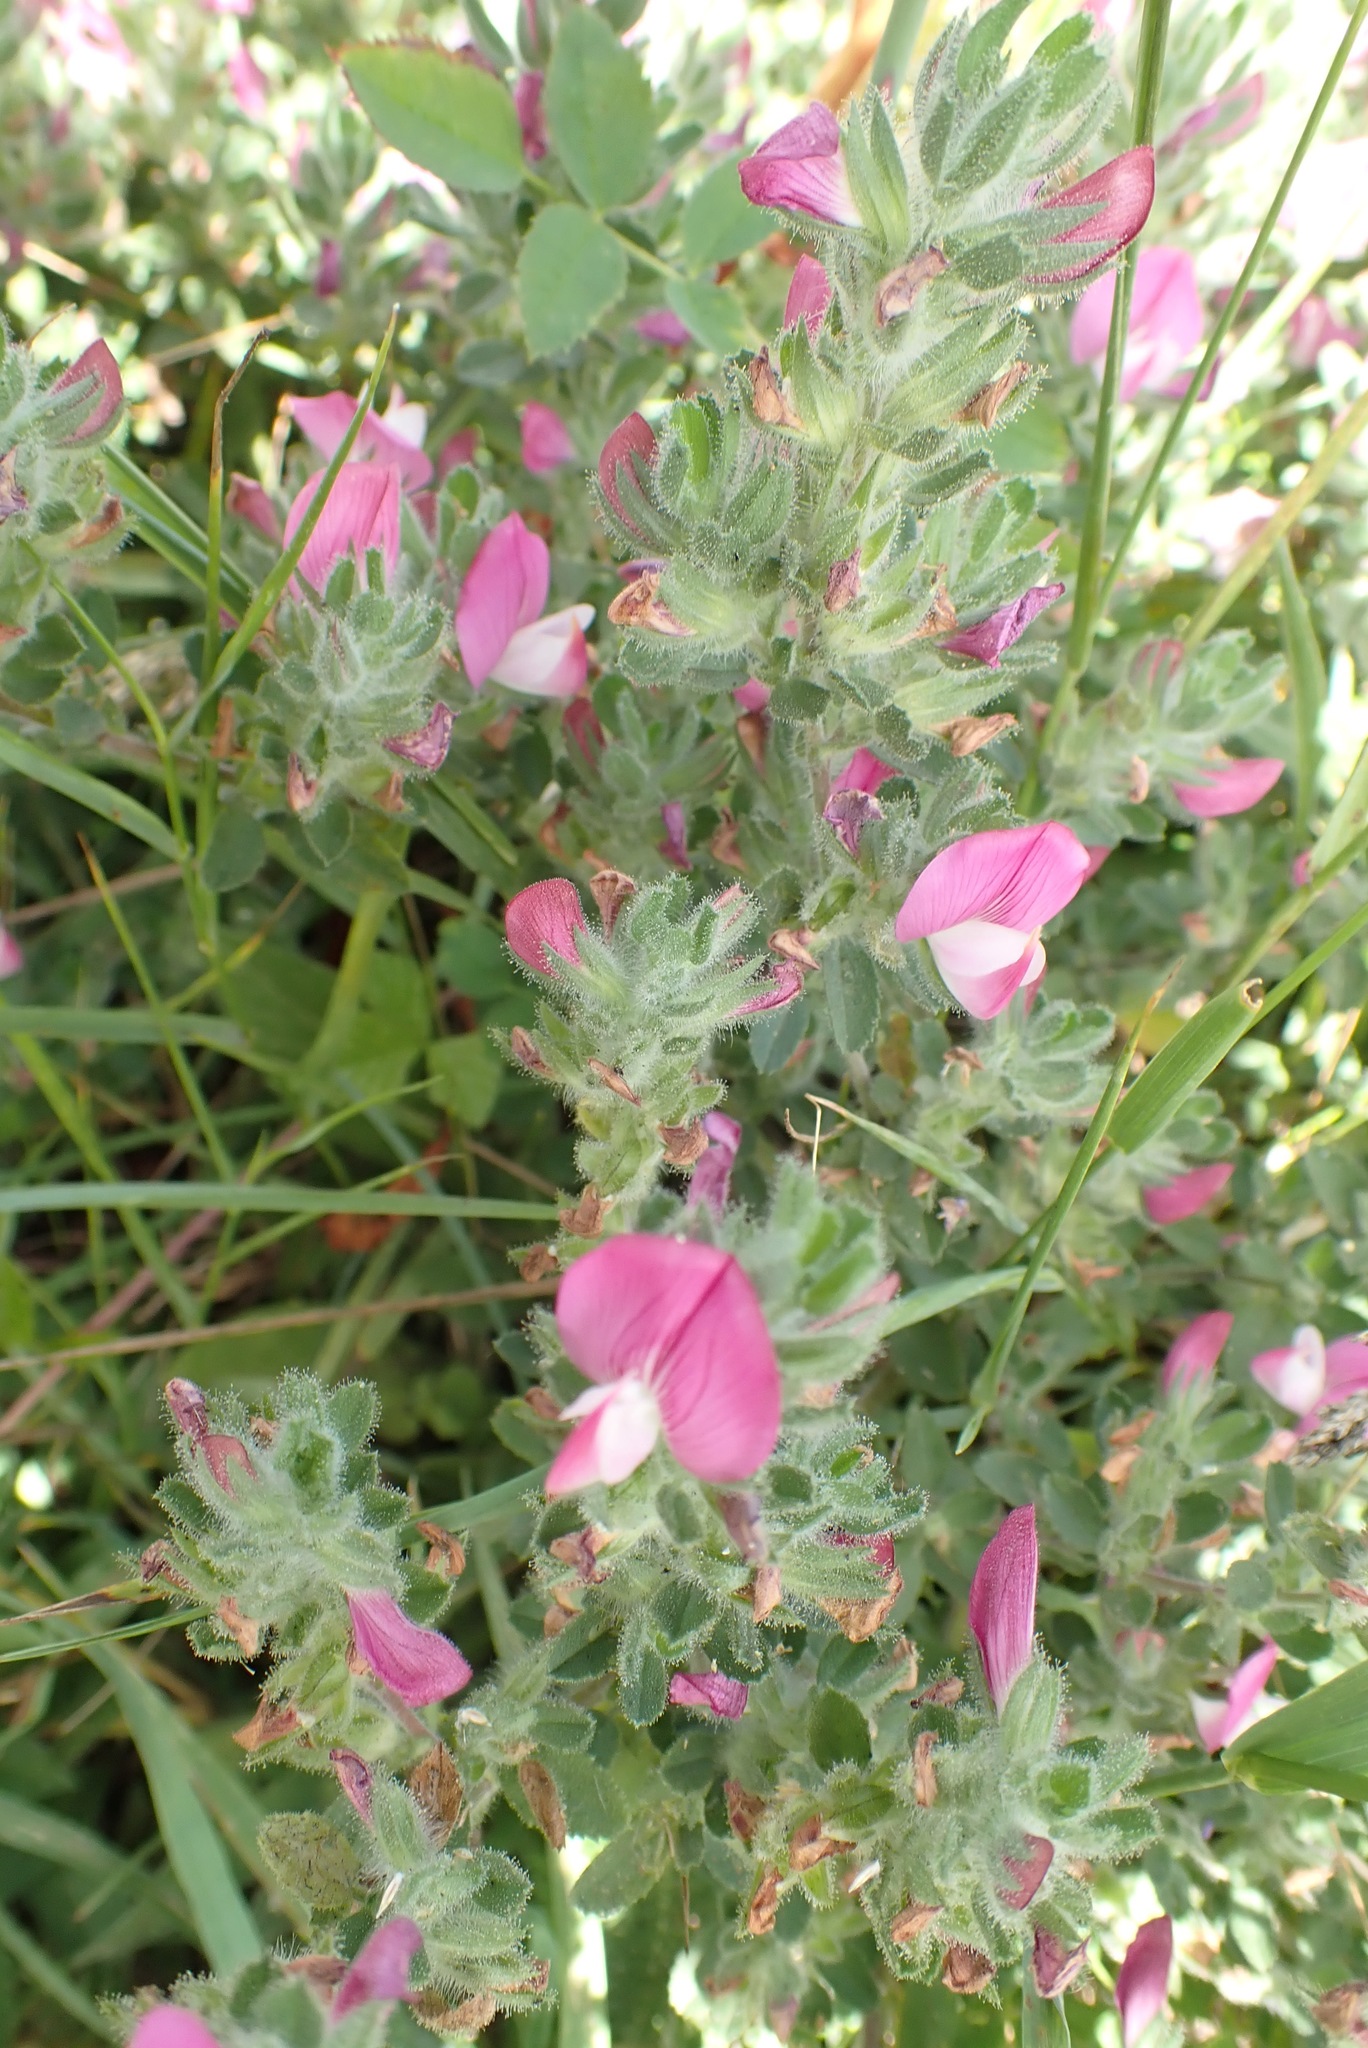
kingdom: Plantae
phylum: Tracheophyta
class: Magnoliopsida
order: Fabales
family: Fabaceae
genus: Ononis
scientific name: Ononis spinosa
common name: Spiny restharrow
